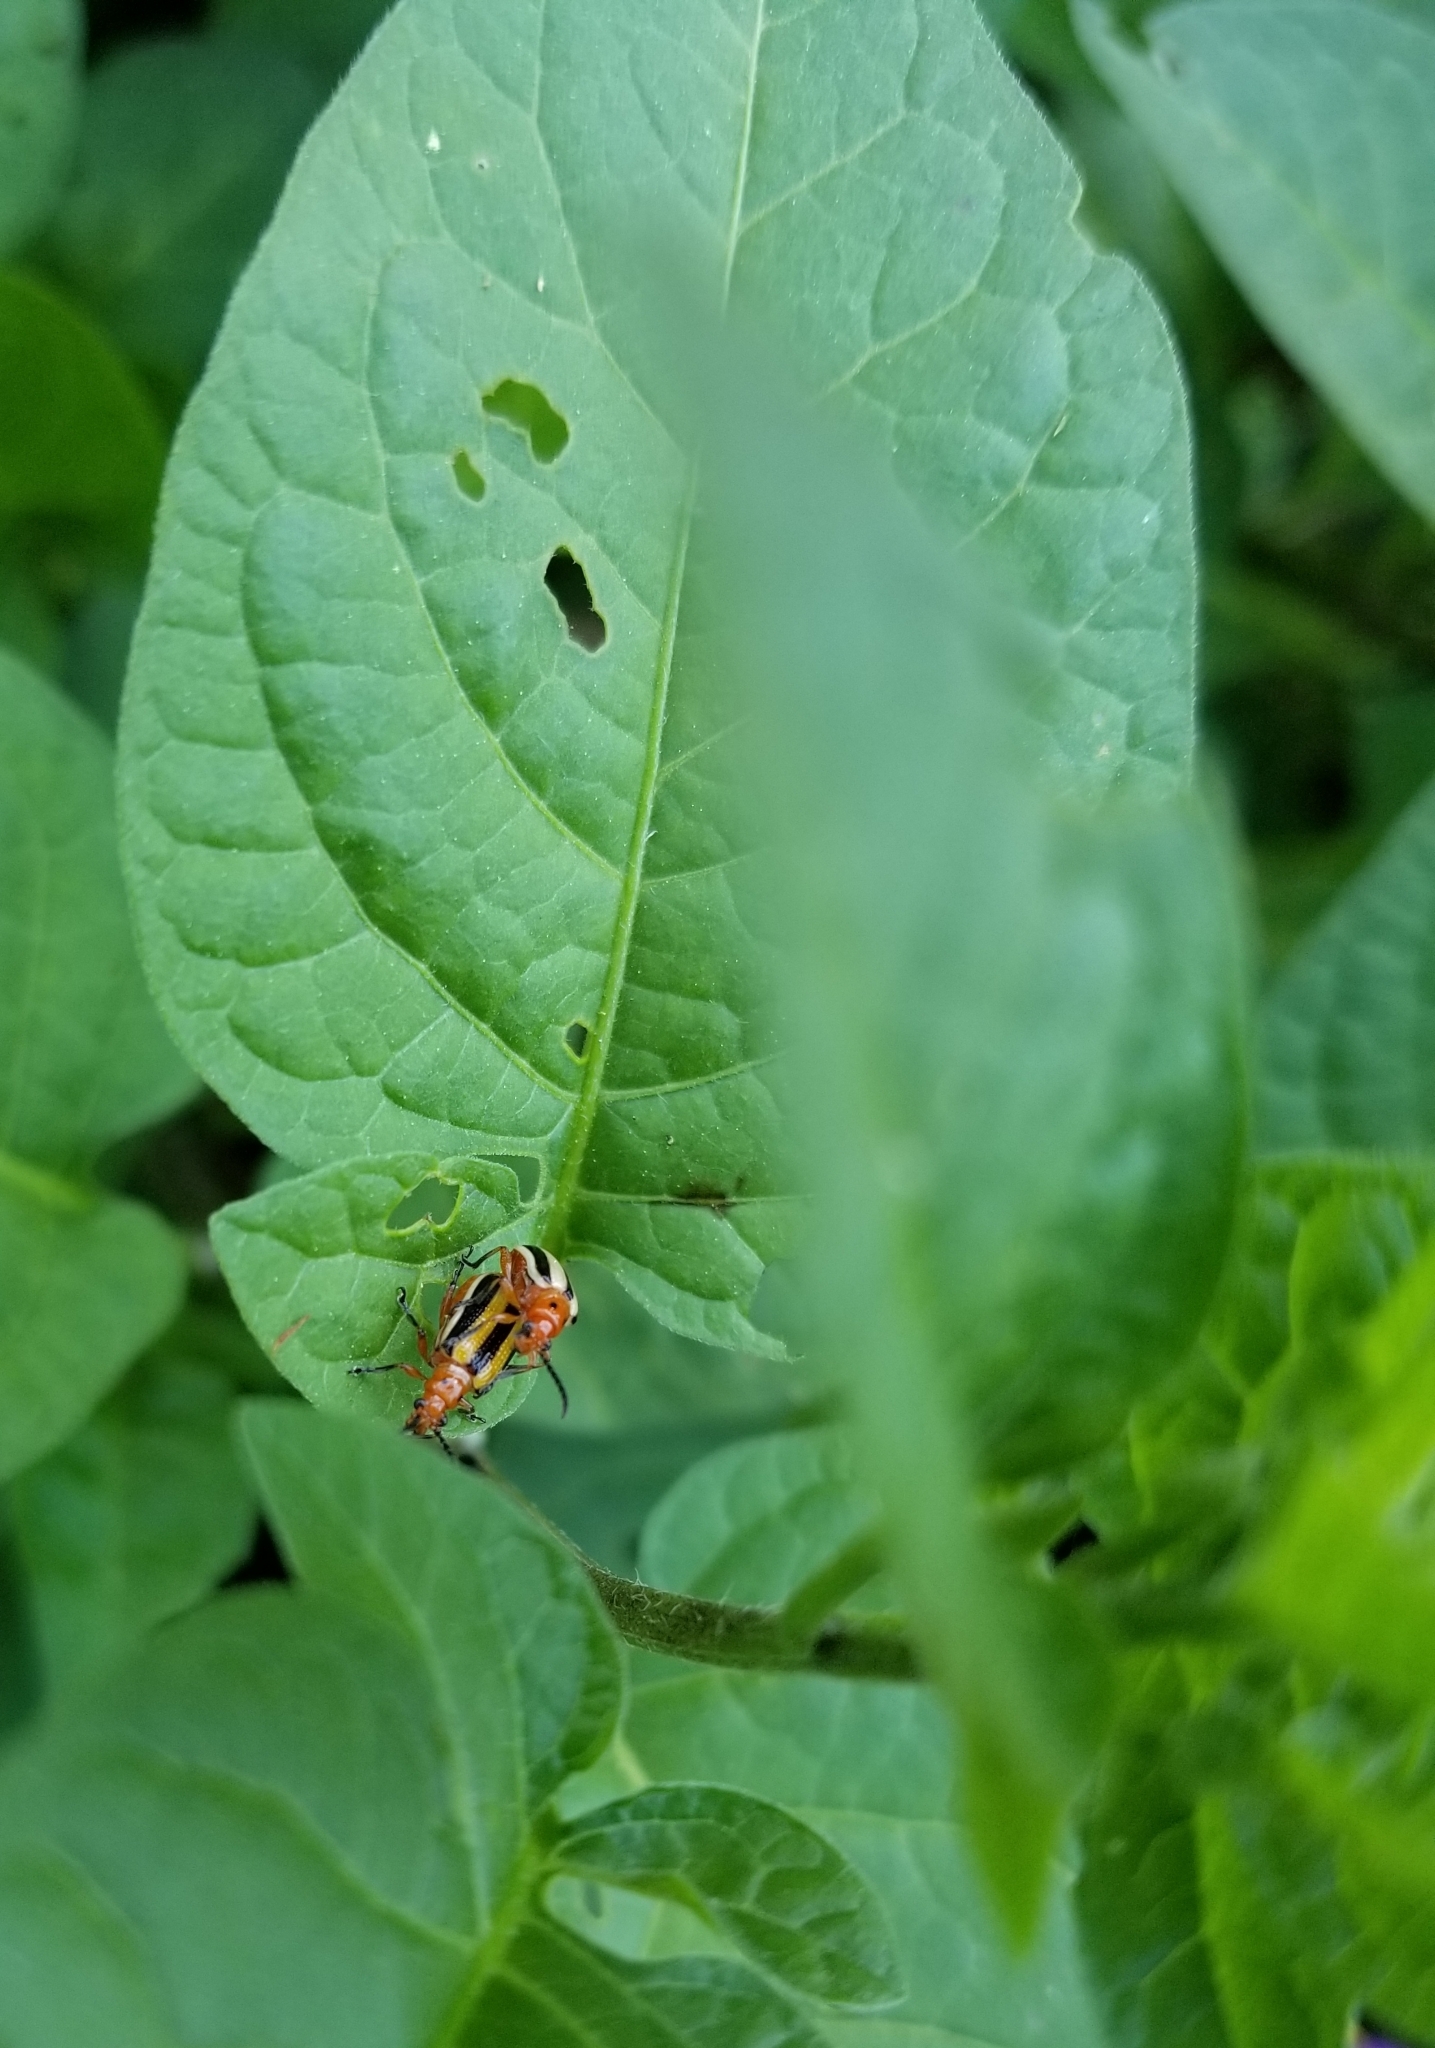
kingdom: Animalia
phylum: Arthropoda
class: Insecta
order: Coleoptera
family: Chrysomelidae
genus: Lema
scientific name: Lema daturaphila
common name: Leaf beetle
